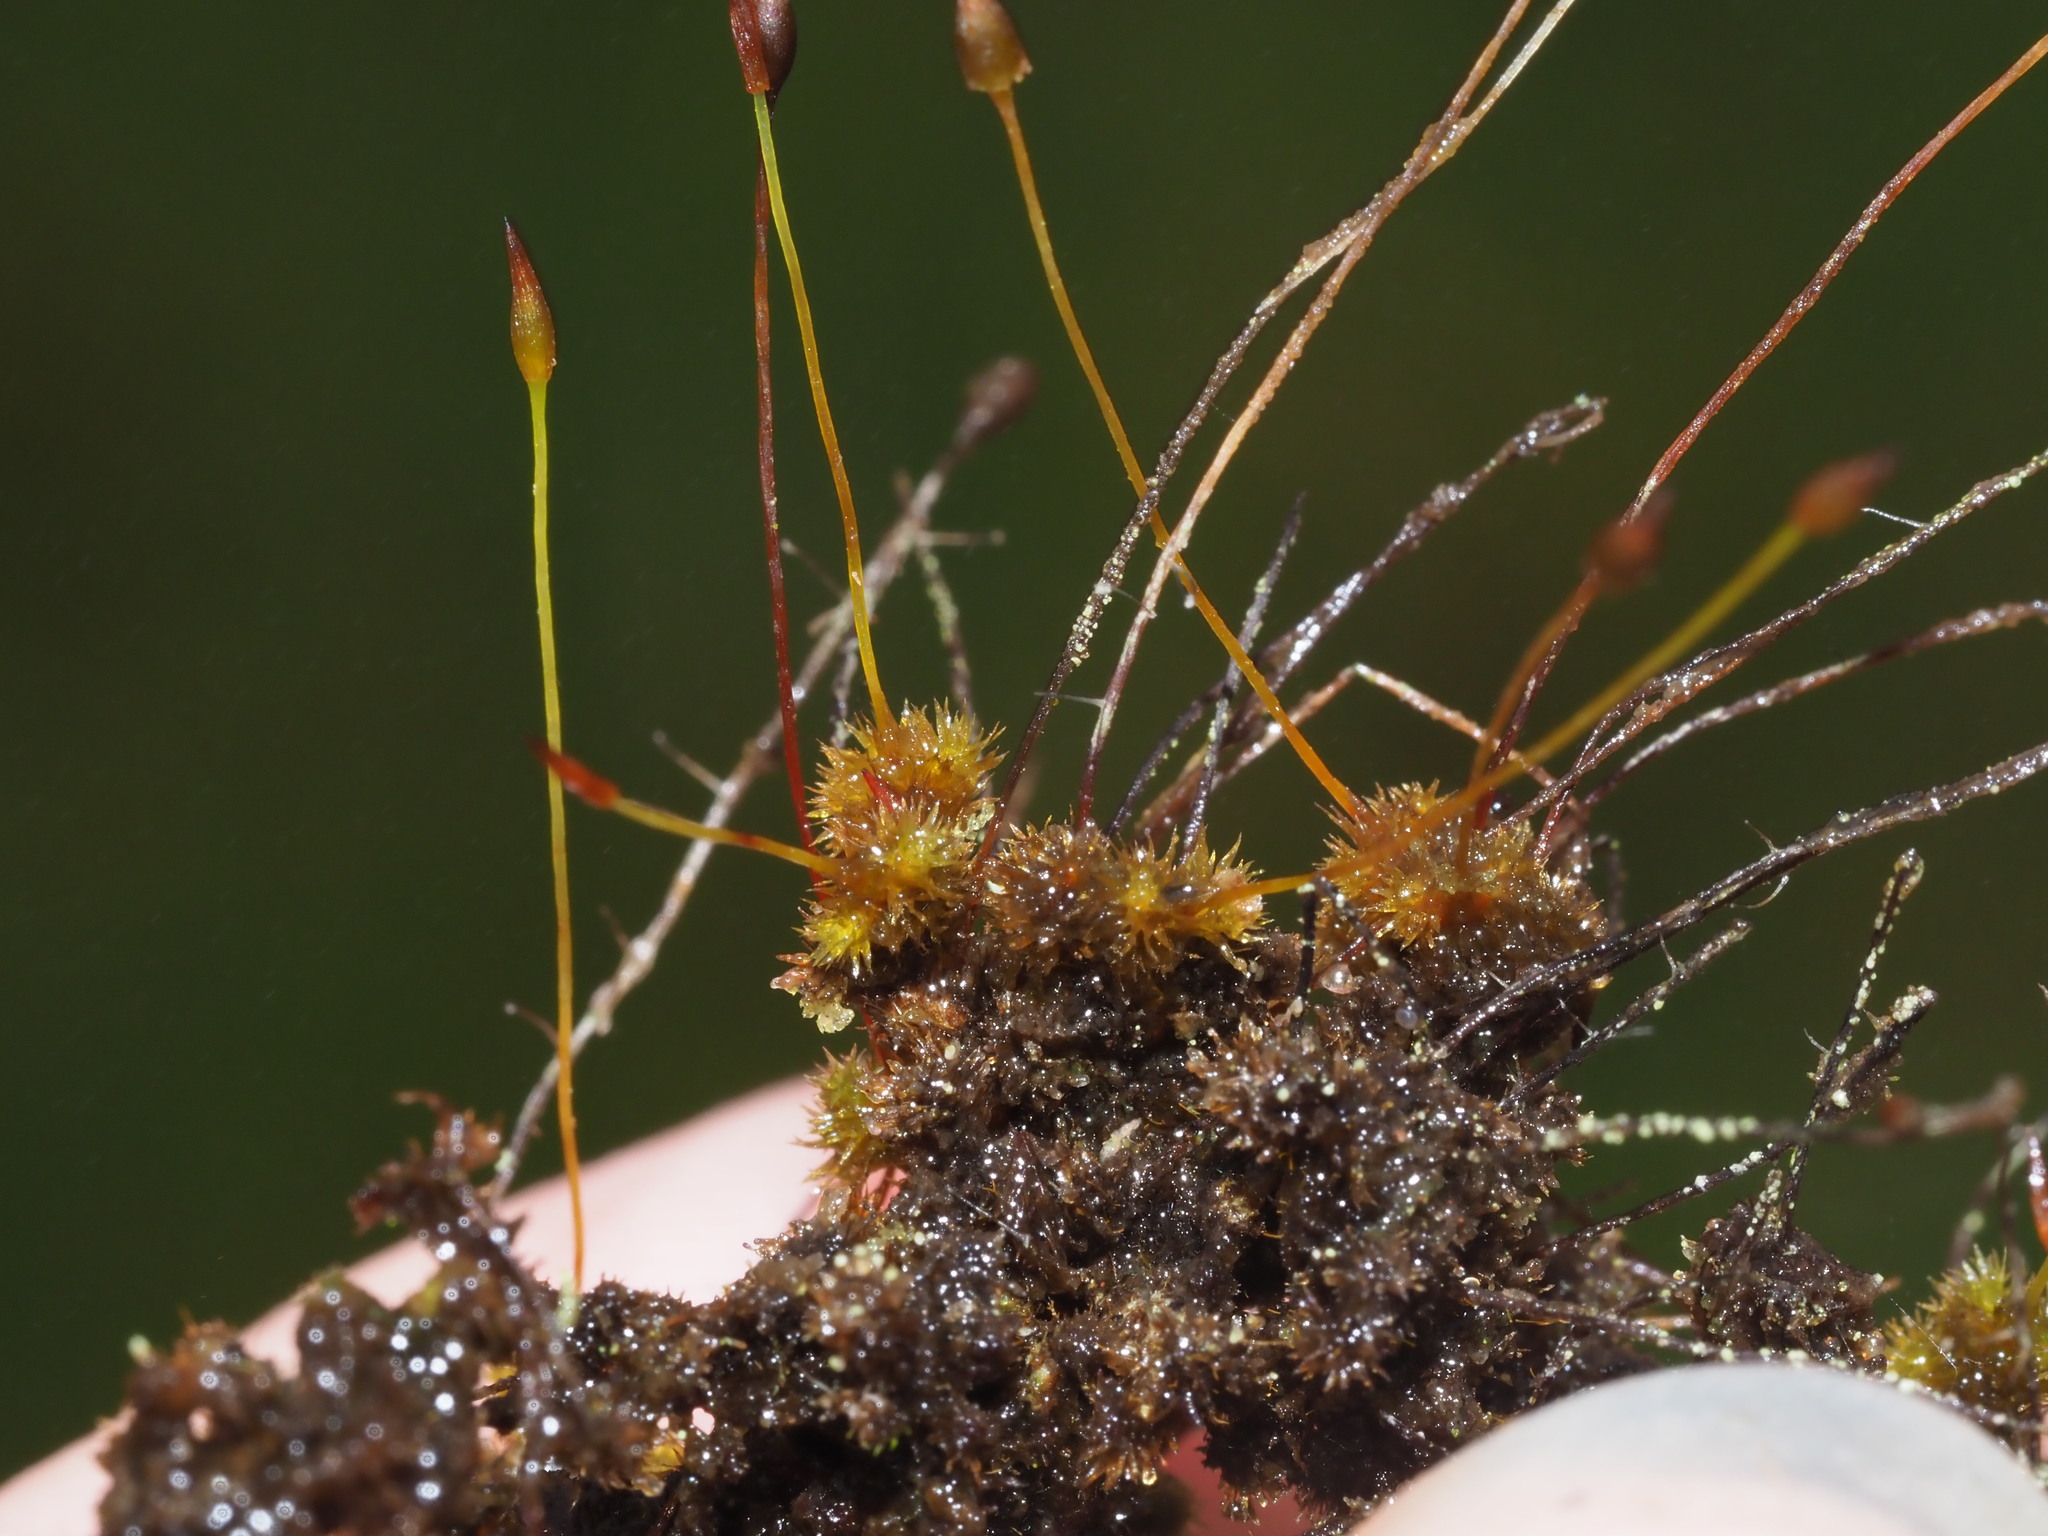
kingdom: Plantae
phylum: Bryophyta
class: Bryopsida
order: Orthotrichales
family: Orthotrichaceae
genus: Macromitrium
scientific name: Macromitrium microstomum
